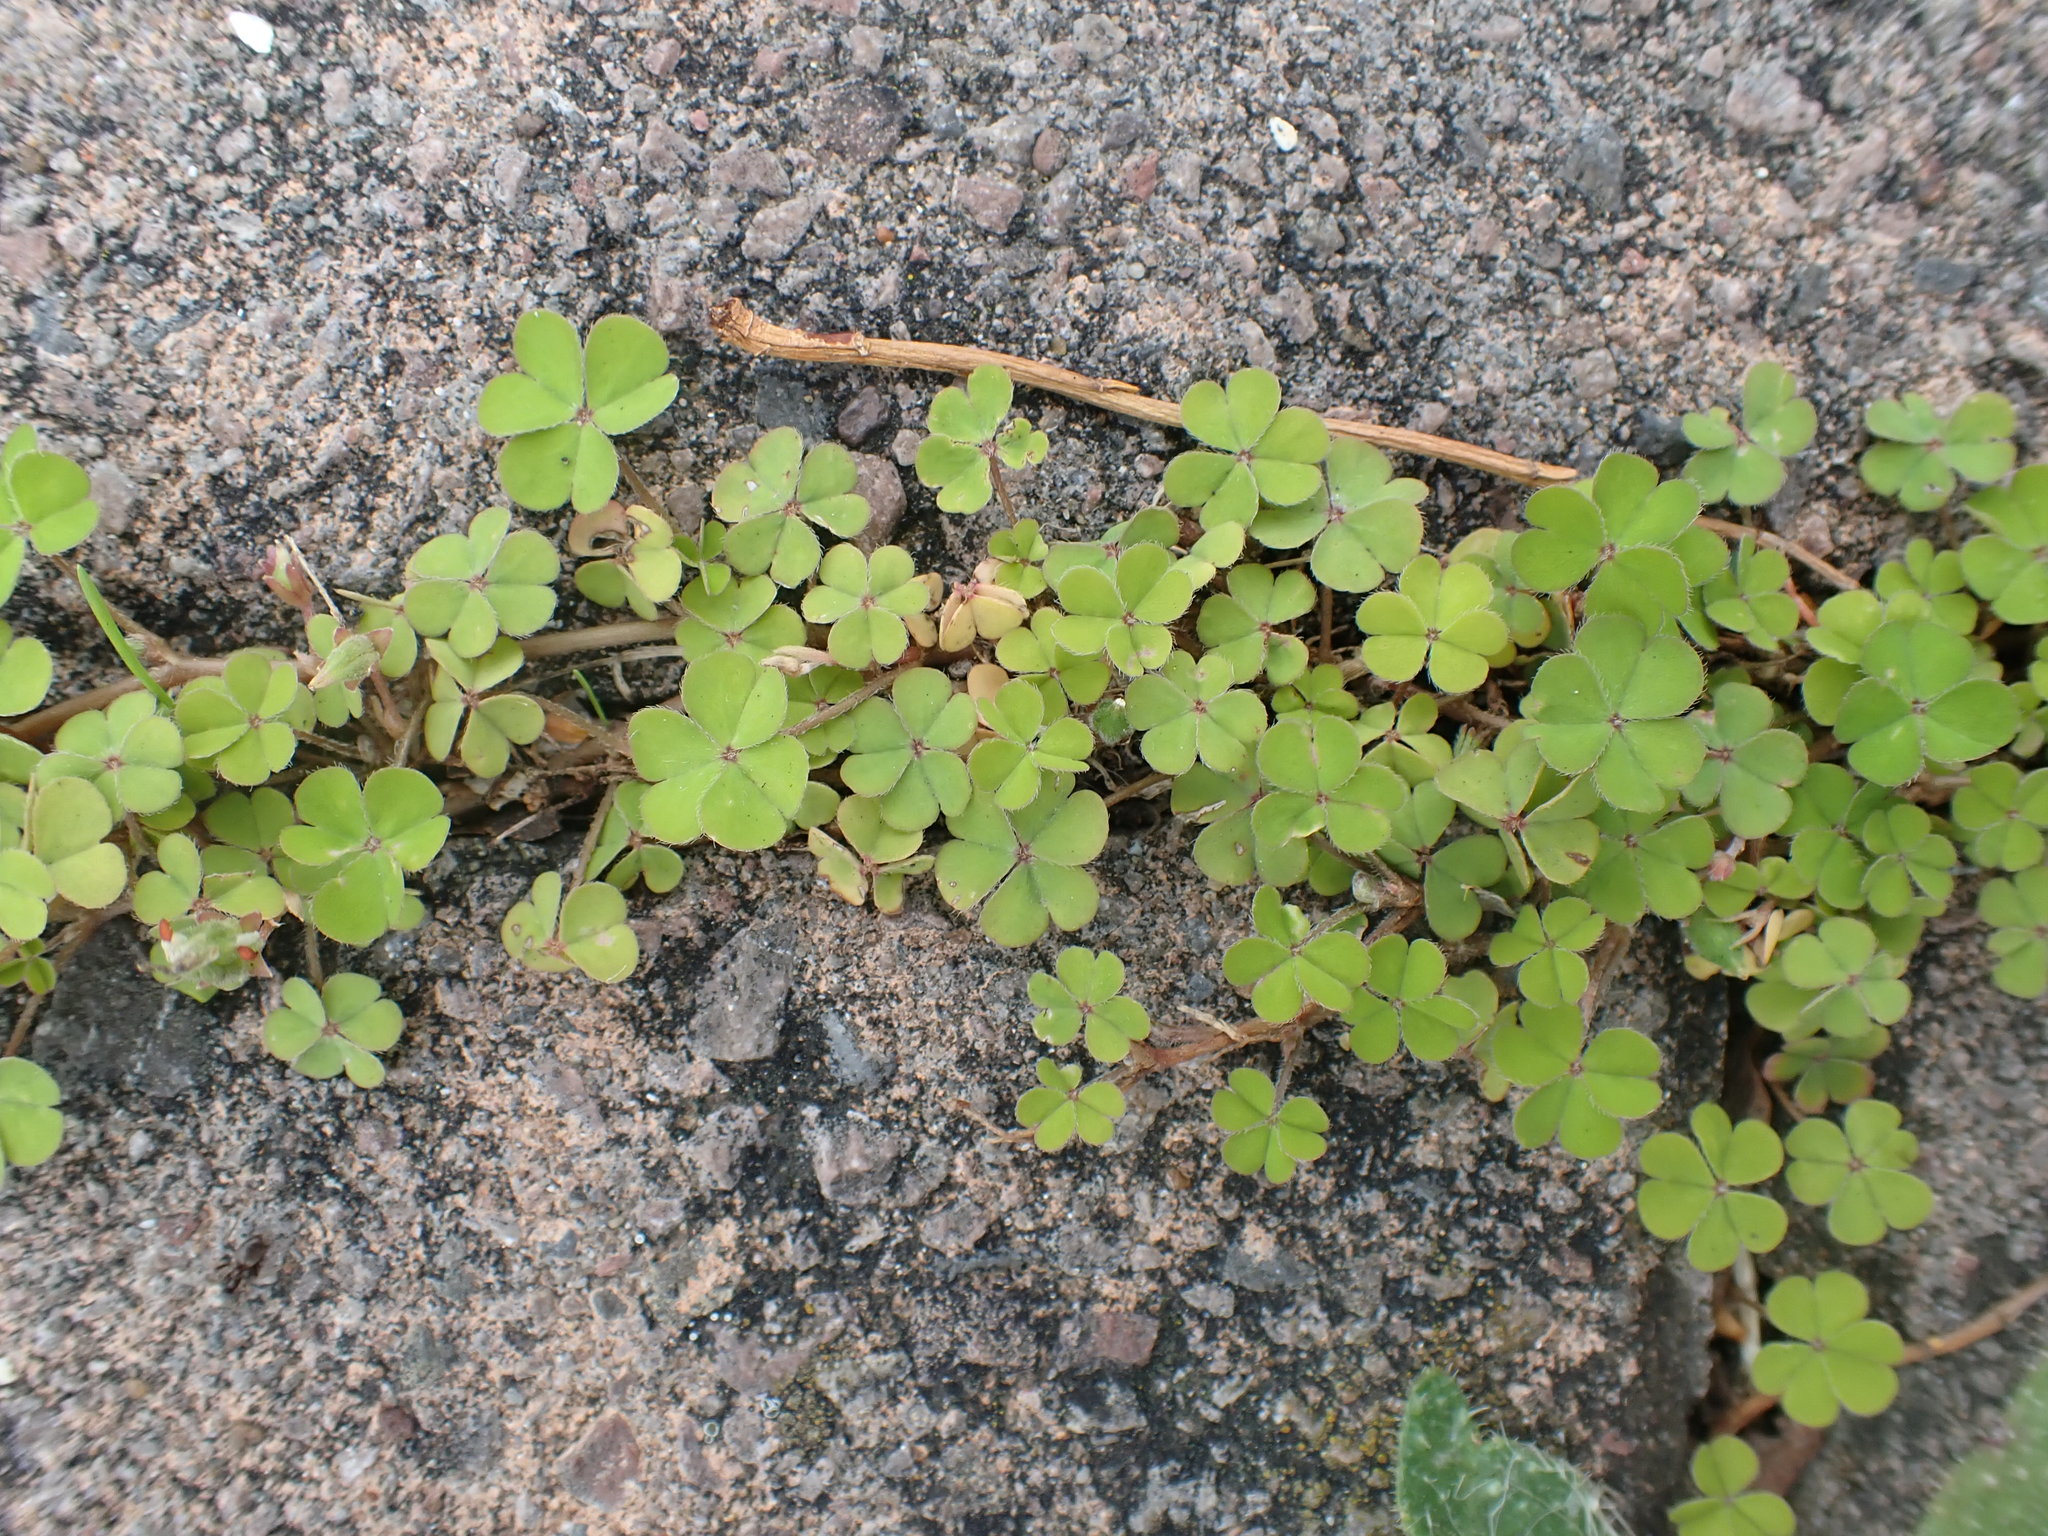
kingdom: Plantae
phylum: Tracheophyta
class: Magnoliopsida
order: Oxalidales
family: Oxalidaceae
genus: Oxalis
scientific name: Oxalis corniculata
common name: Procumbent yellow-sorrel
